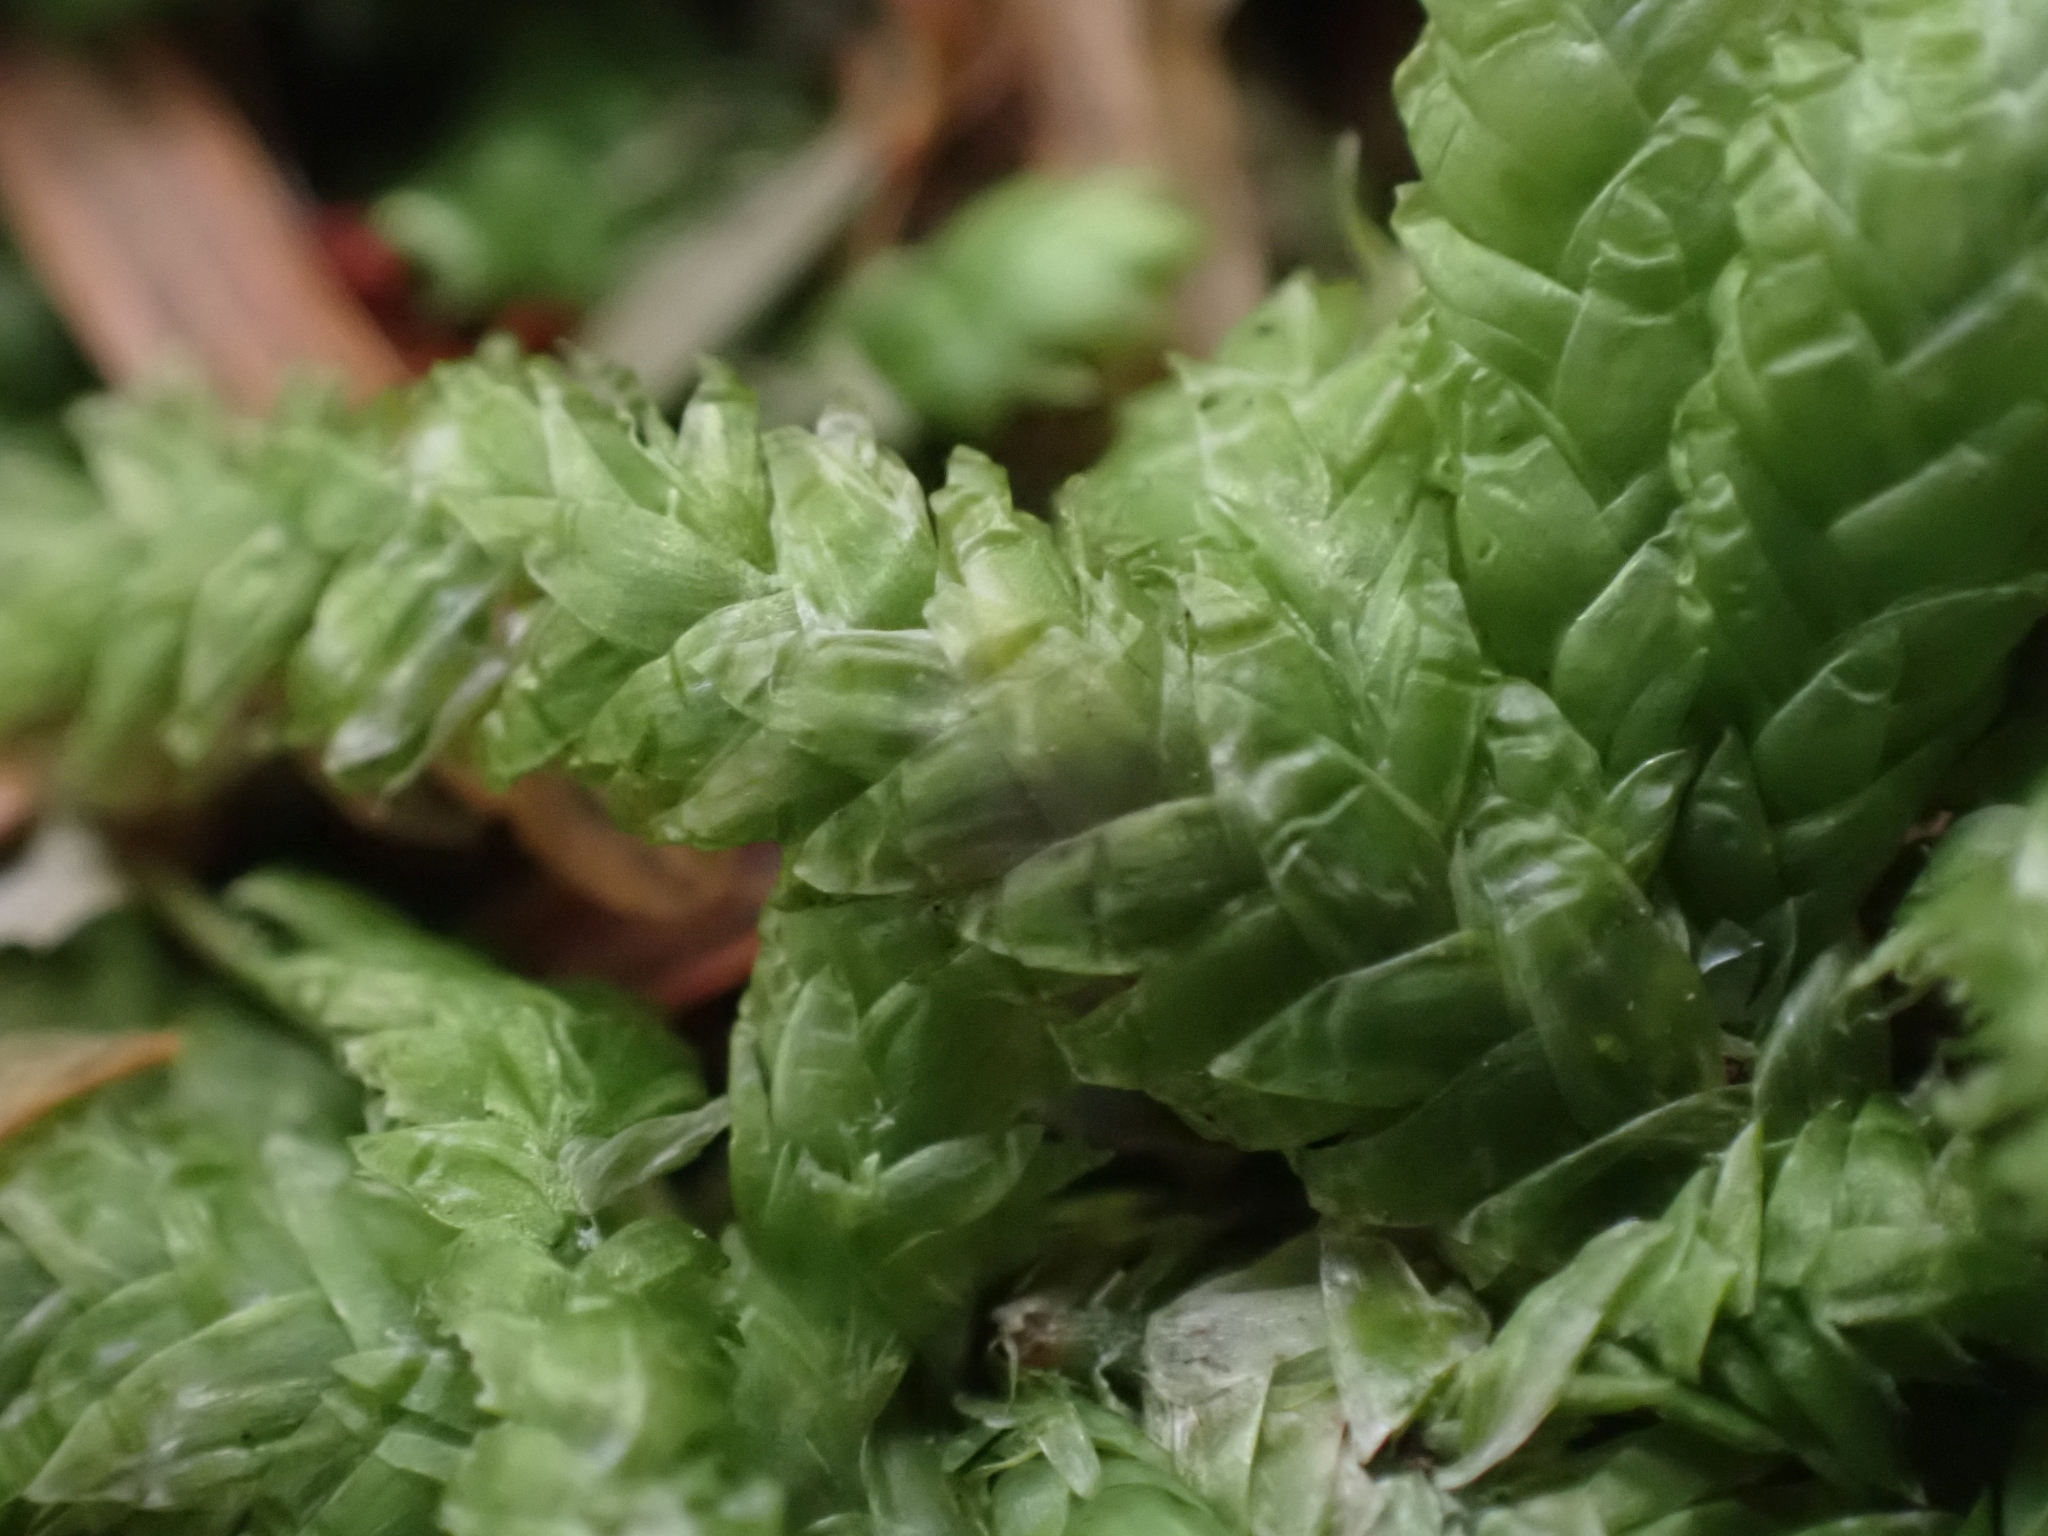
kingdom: Plantae
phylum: Bryophyta
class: Bryopsida
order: Hypnales
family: Plagiotheciaceae
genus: Plagiothecium
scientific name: Plagiothecium undulatum
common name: Waved silk-moss
